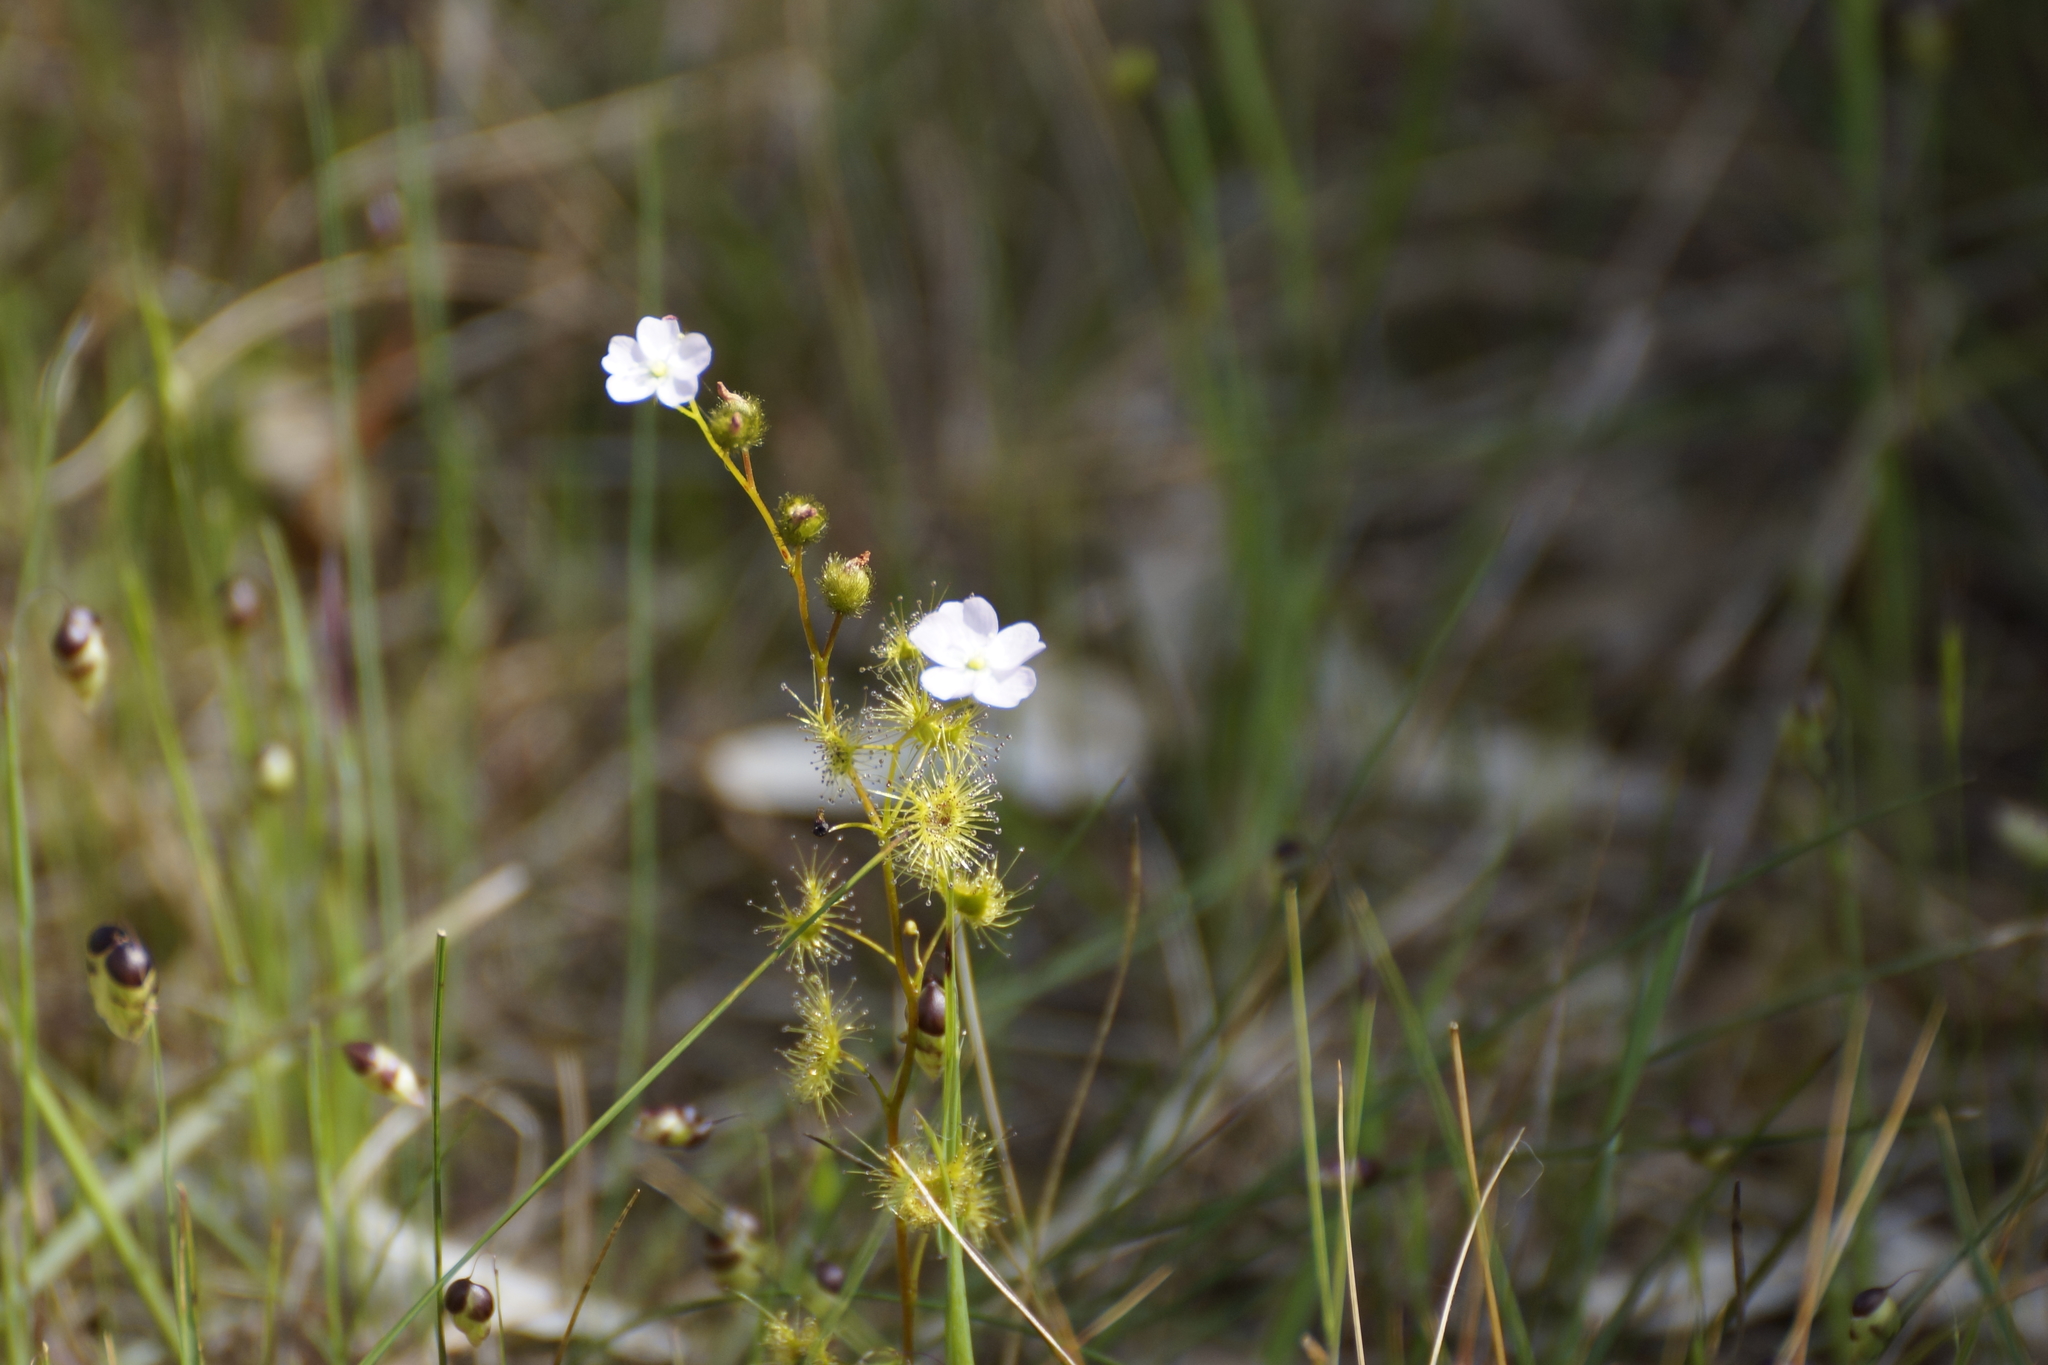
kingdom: Plantae
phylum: Tracheophyta
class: Magnoliopsida
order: Caryophyllales
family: Droseraceae
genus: Drosera
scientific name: Drosera peltata
